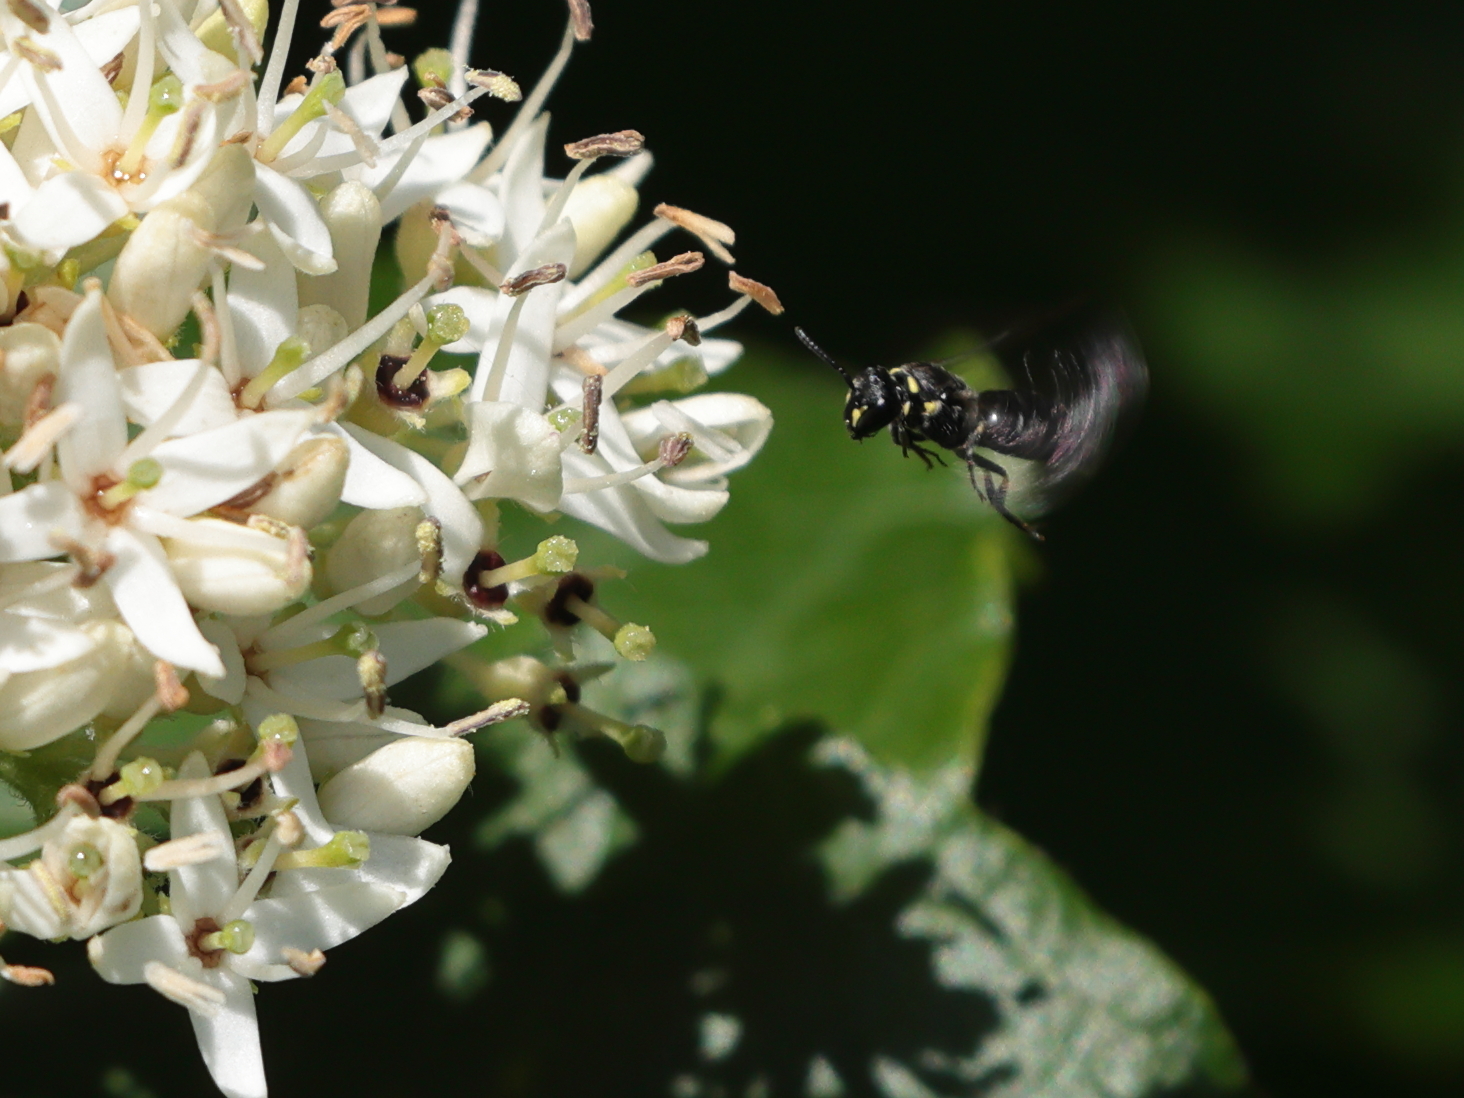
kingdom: Animalia
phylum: Arthropoda
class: Insecta
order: Hymenoptera
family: Colletidae
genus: Hylaeus
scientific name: Hylaeus modestus
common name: Yellow-faced bee
